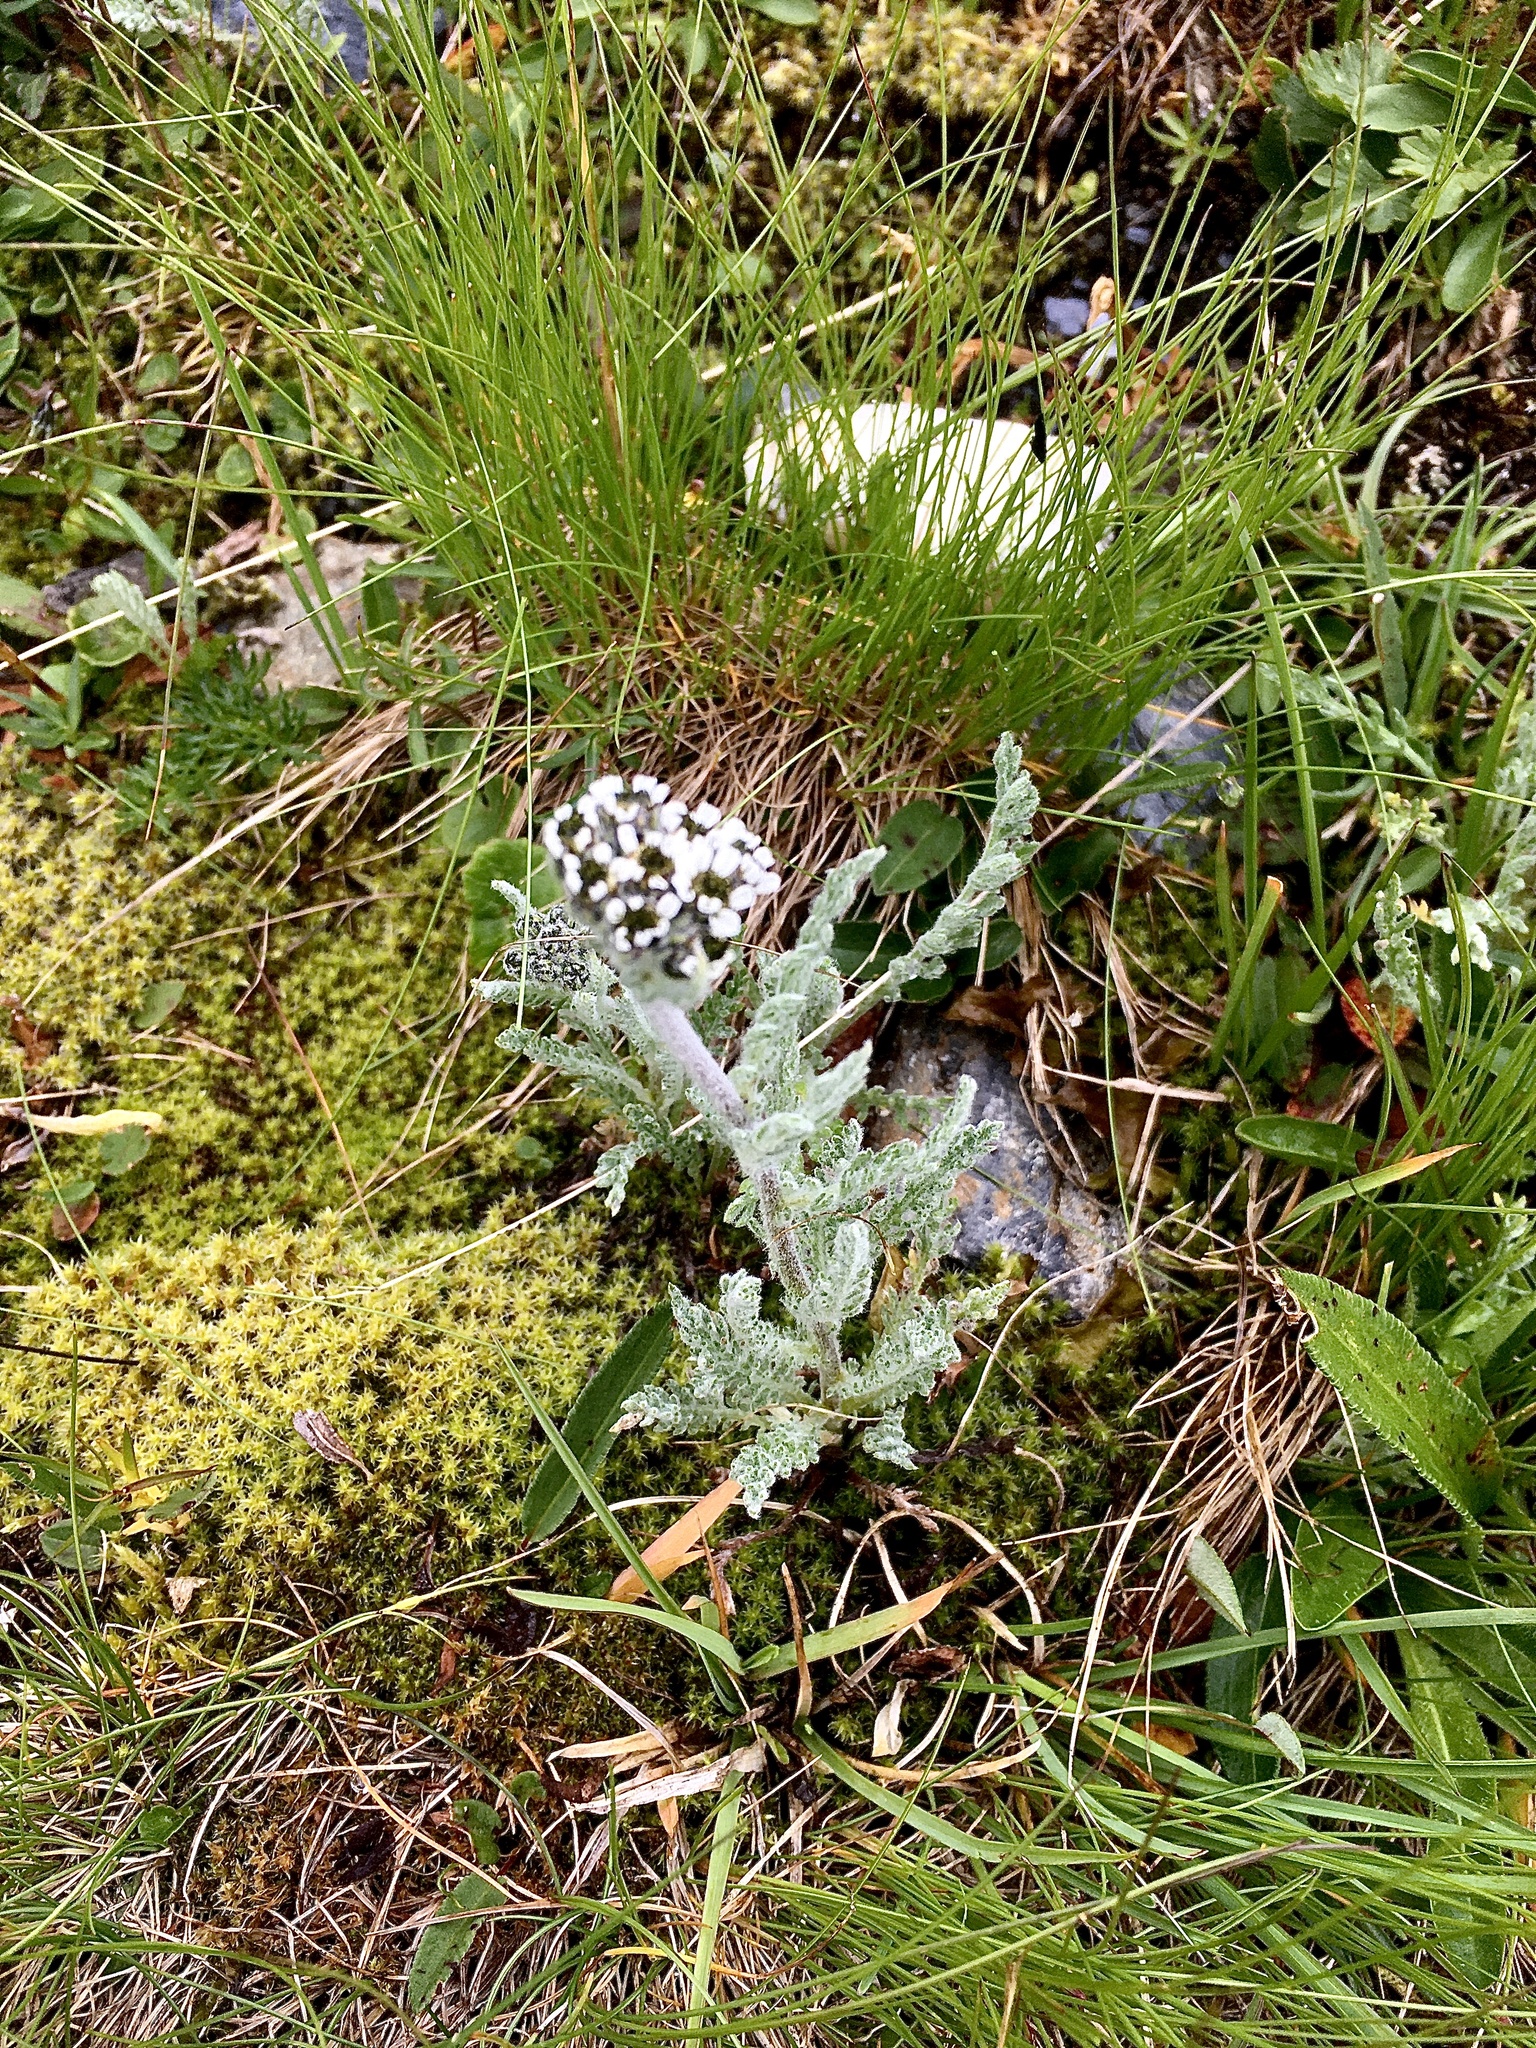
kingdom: Plantae
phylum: Tracheophyta
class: Magnoliopsida
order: Asterales
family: Asteraceae
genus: Achillea
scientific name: Achillea nana
